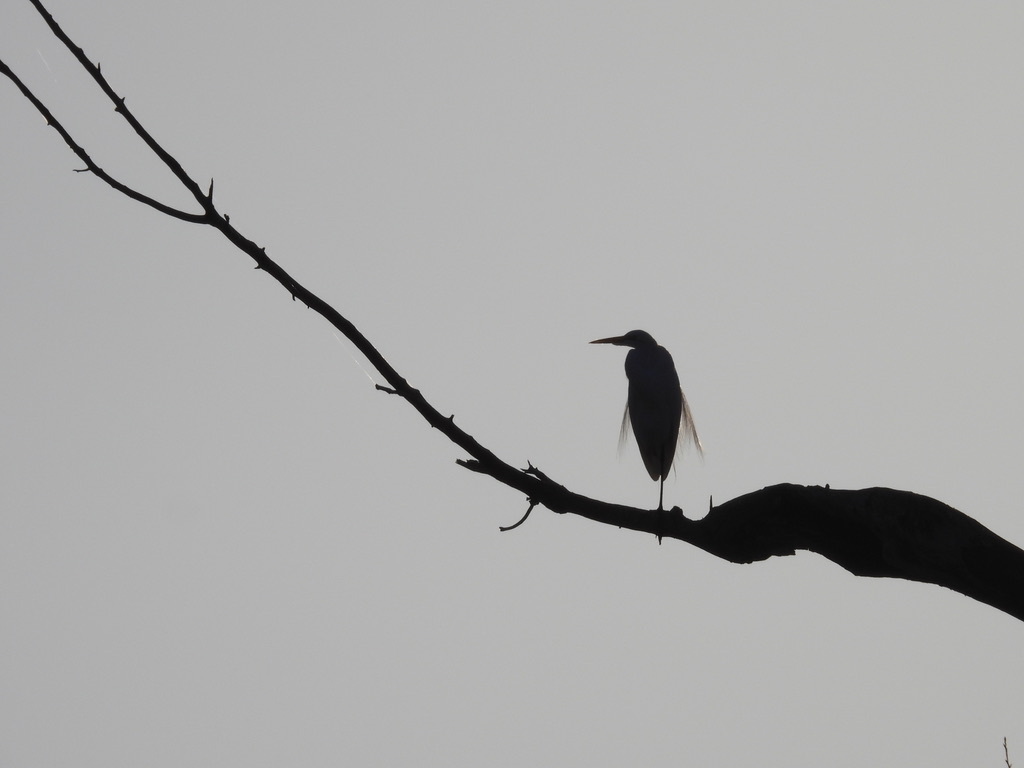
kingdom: Animalia
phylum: Chordata
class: Aves
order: Pelecaniformes
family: Ardeidae
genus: Ardea
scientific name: Ardea alba
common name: Great egret
